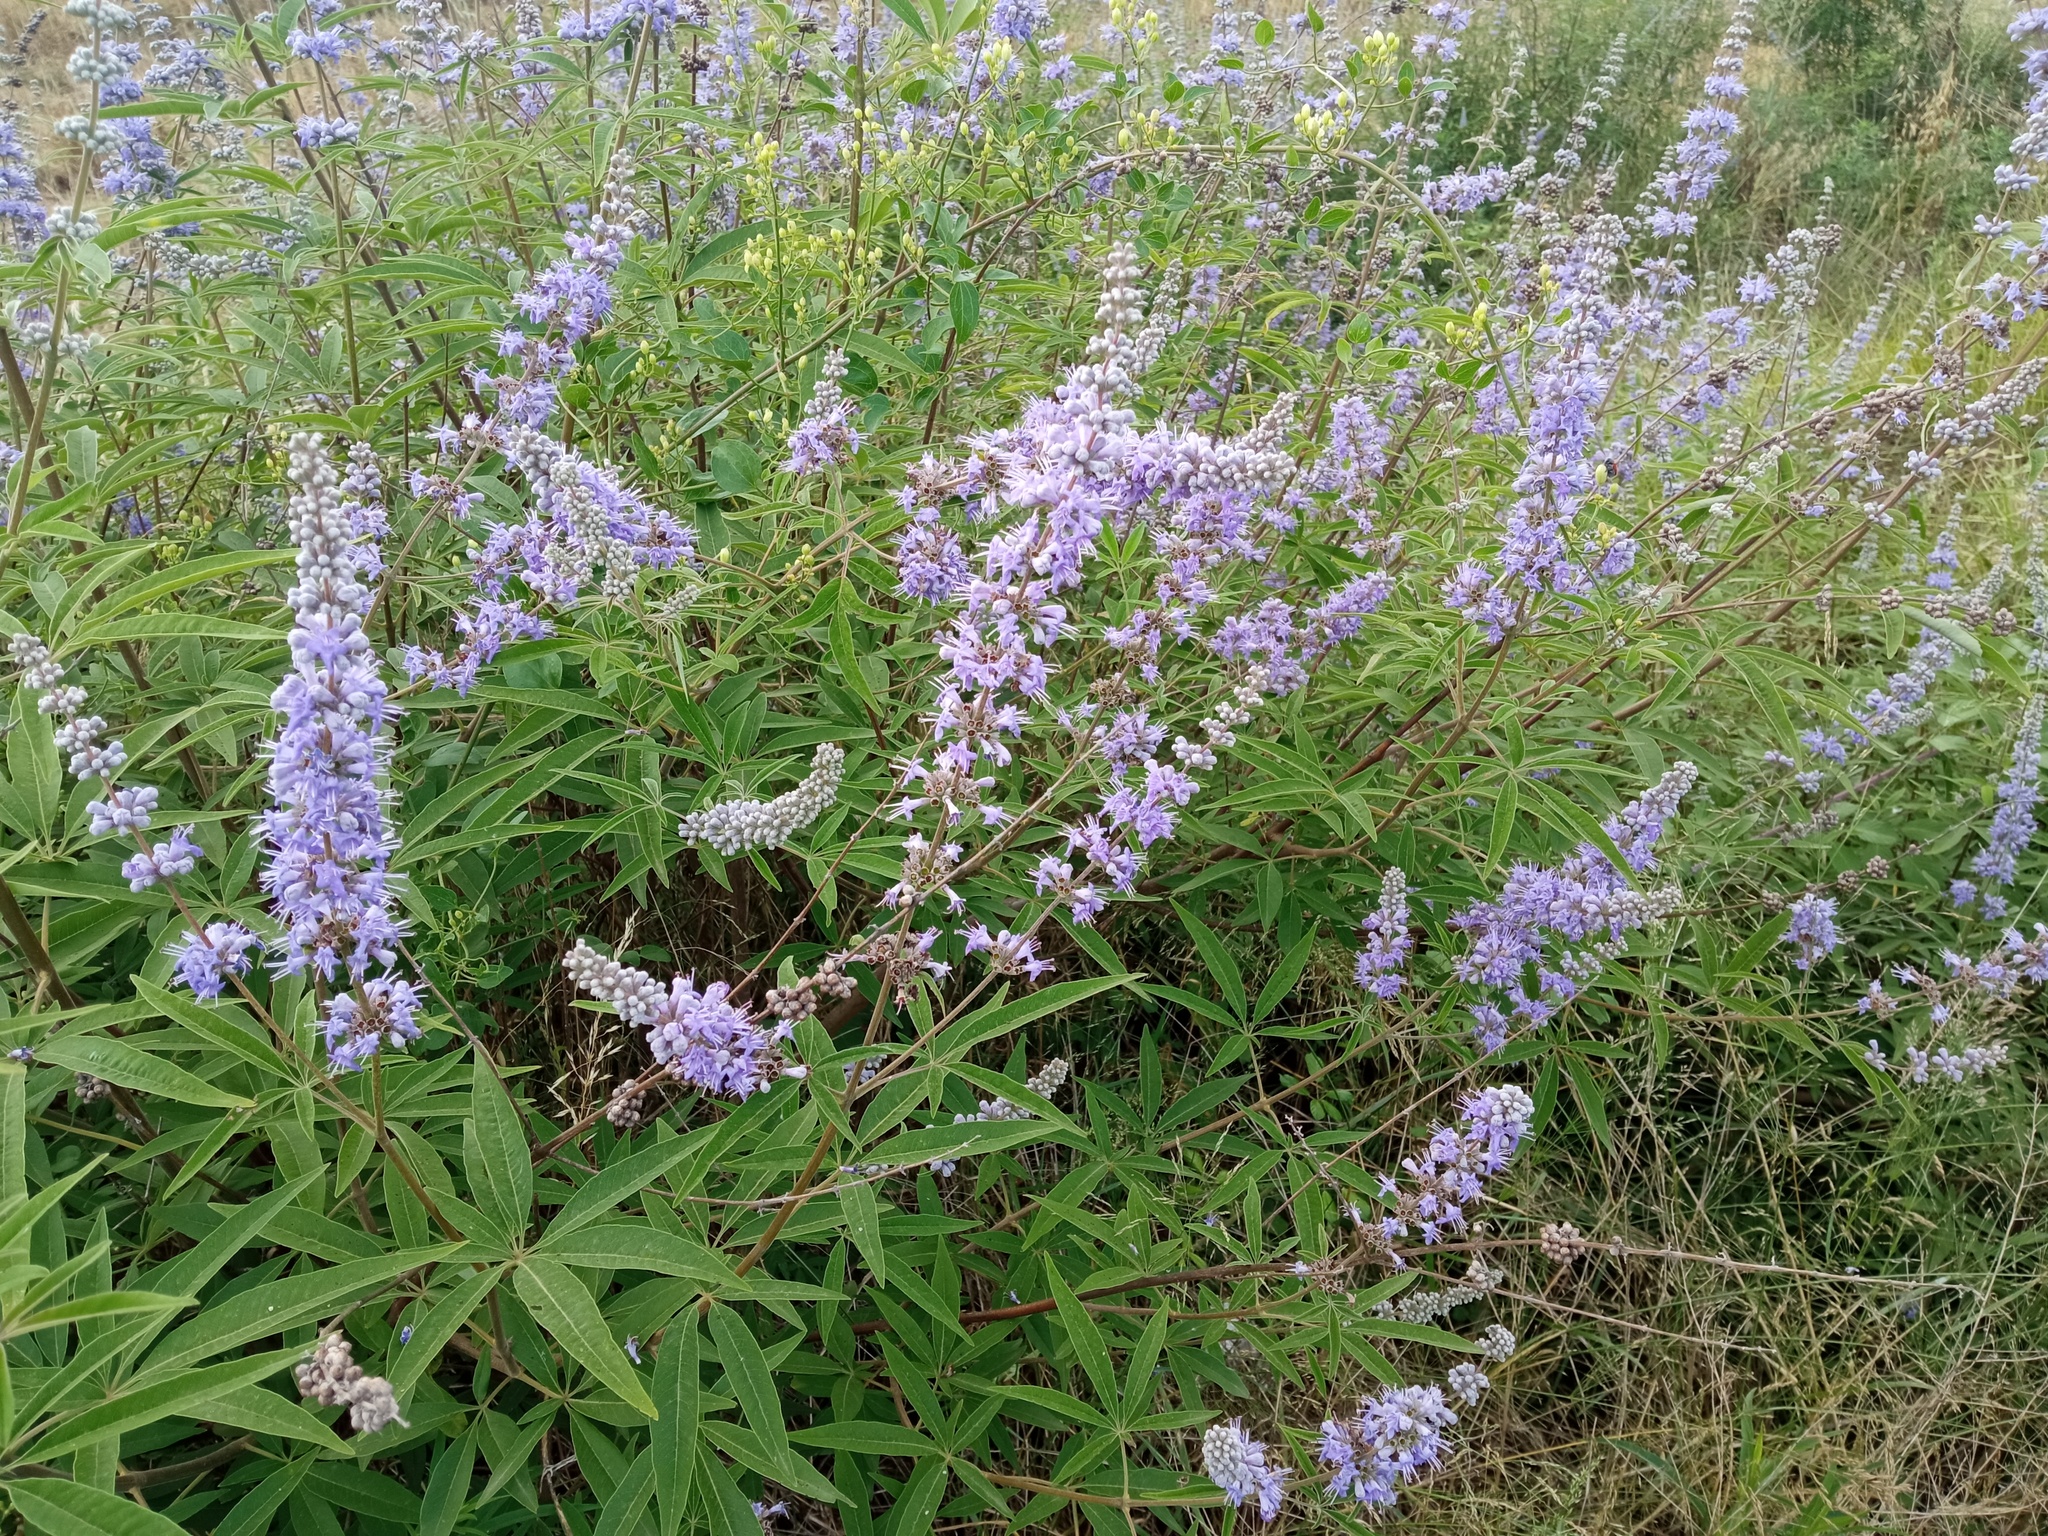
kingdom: Plantae
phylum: Tracheophyta
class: Magnoliopsida
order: Lamiales
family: Lamiaceae
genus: Vitex
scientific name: Vitex agnus-castus
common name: Chasteberry
